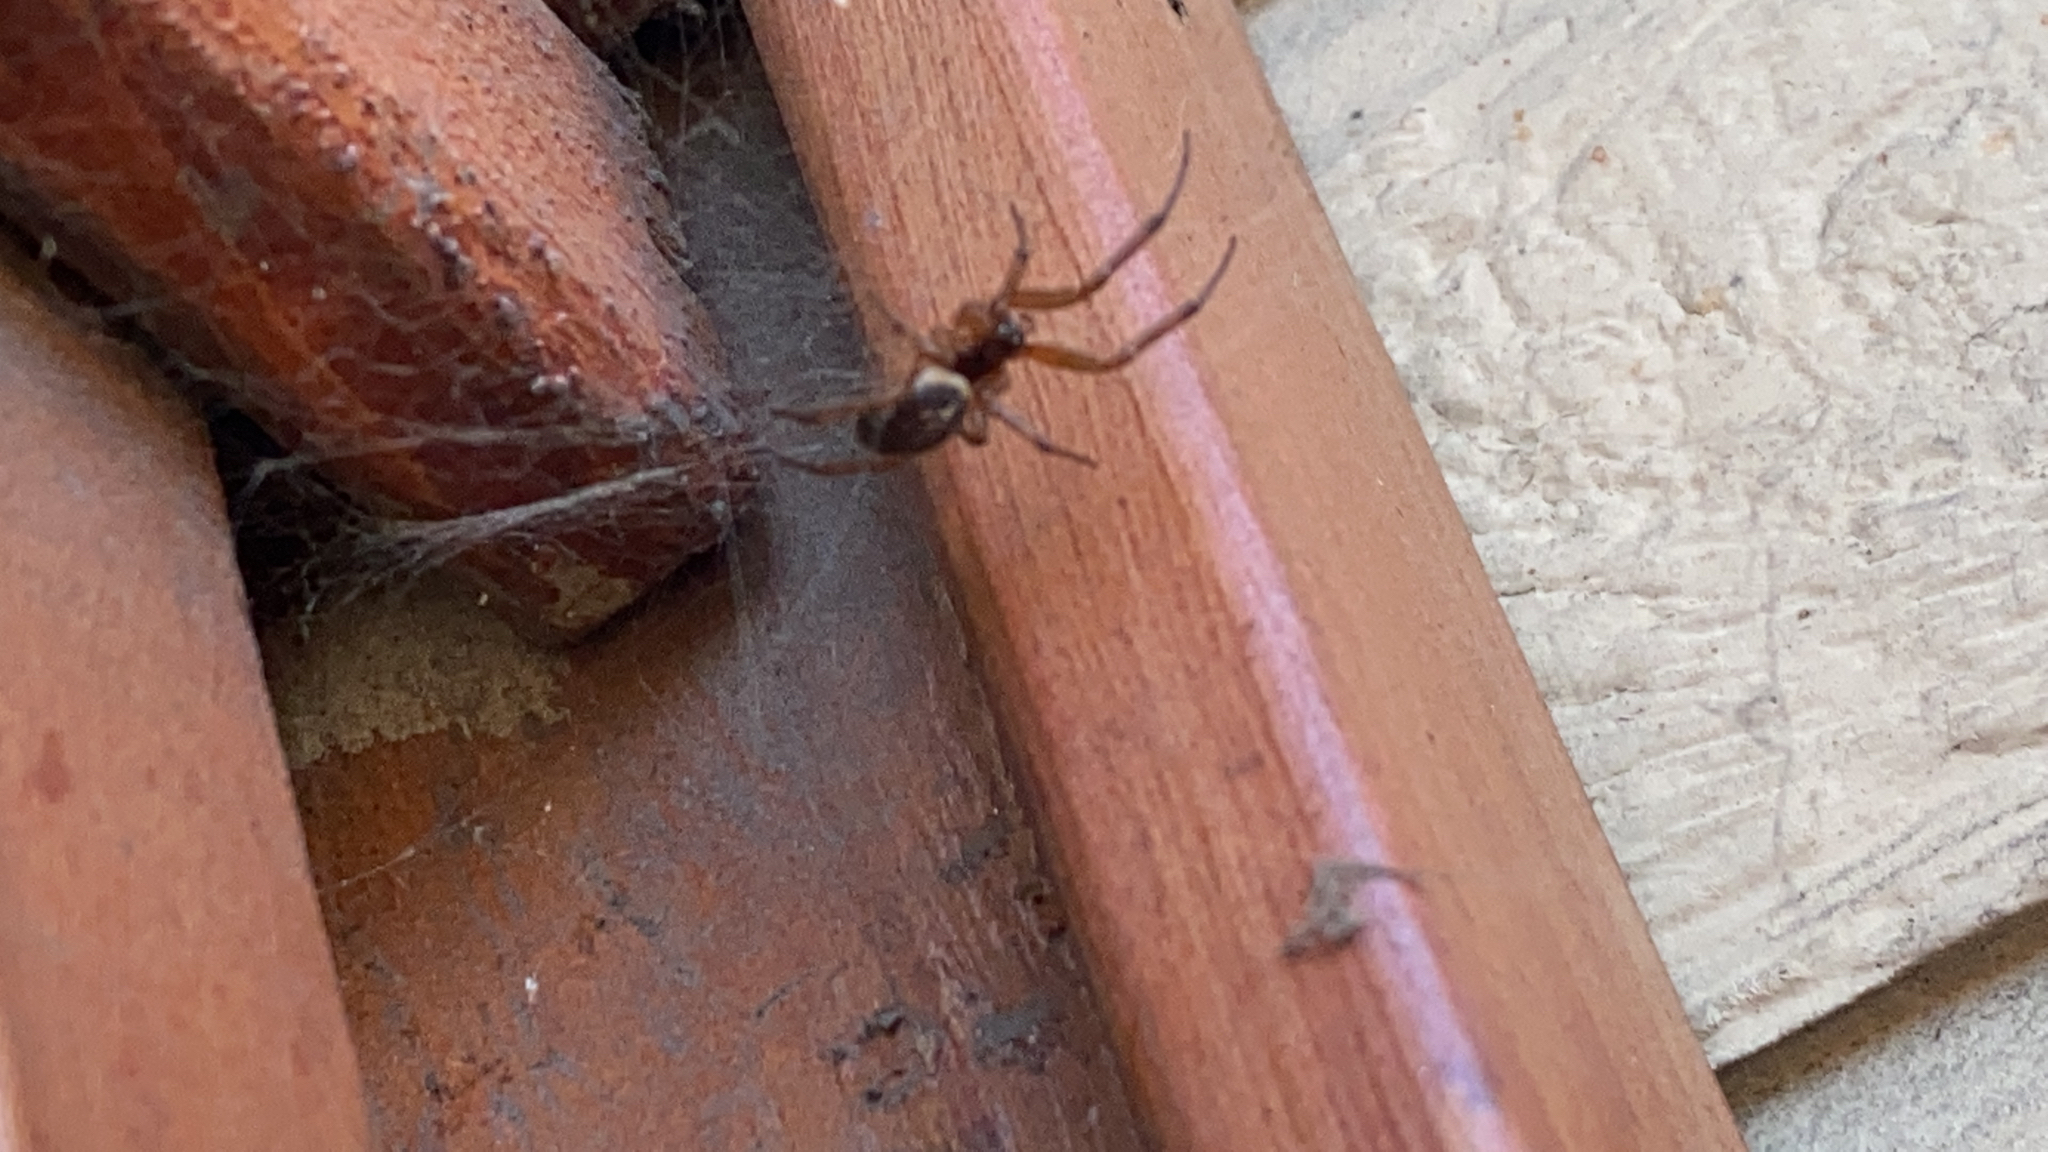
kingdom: Animalia
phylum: Arthropoda
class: Arachnida
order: Araneae
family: Theridiidae
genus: Steatoda
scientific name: Steatoda nobilis
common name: Cobweb weaver
